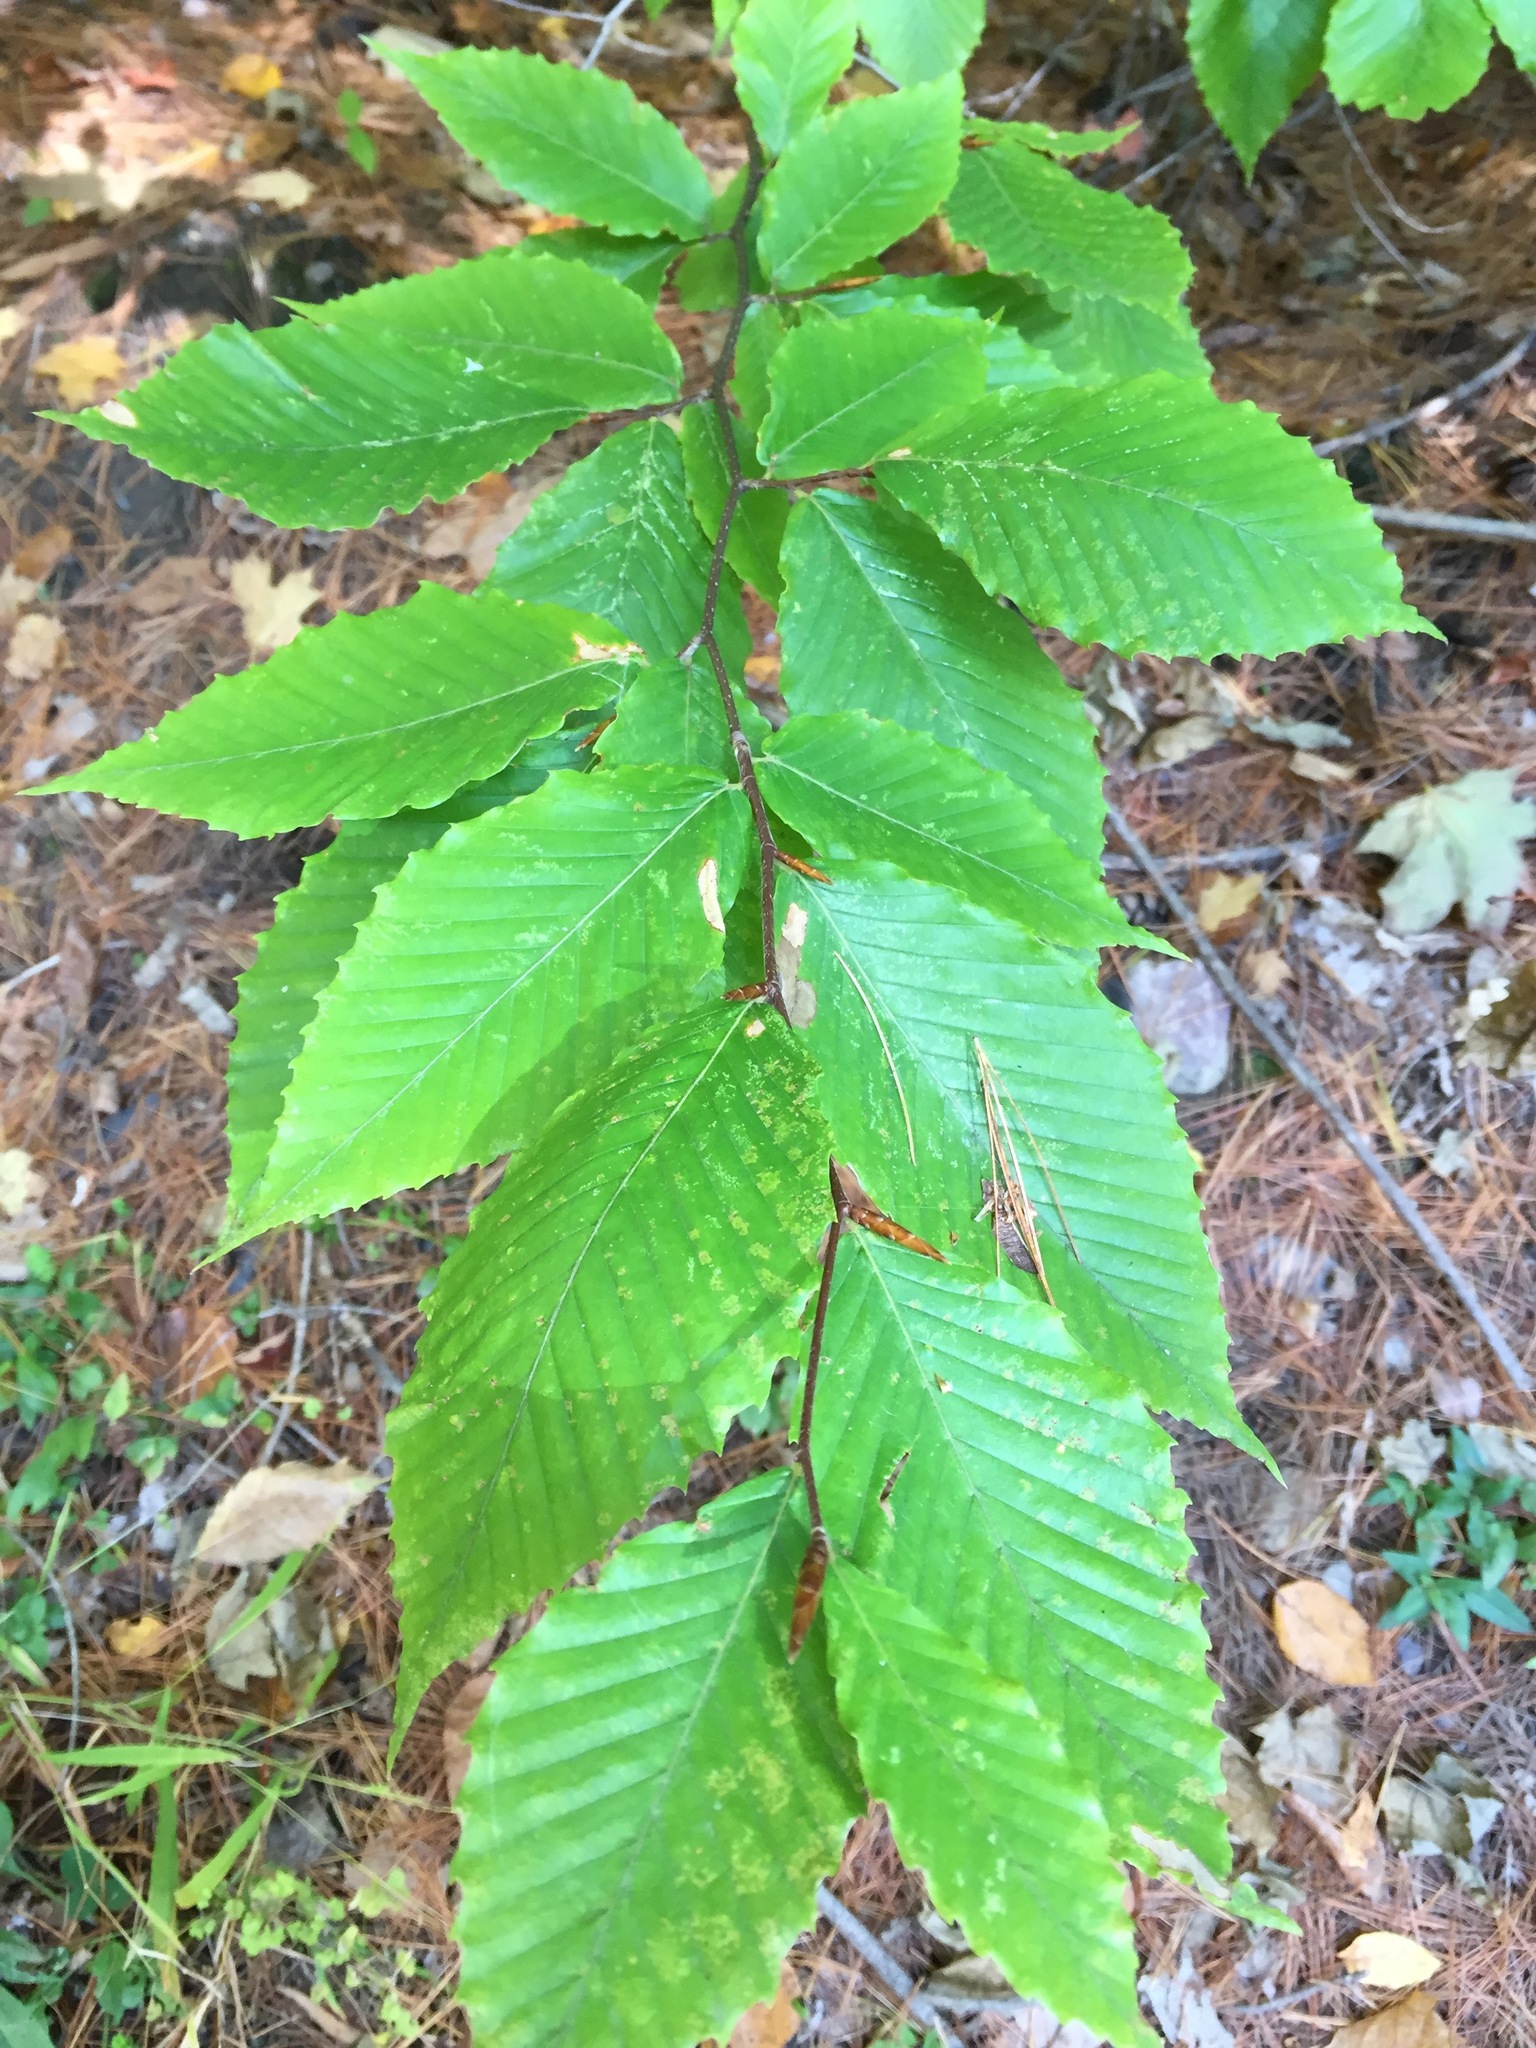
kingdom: Plantae
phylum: Tracheophyta
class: Magnoliopsida
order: Fagales
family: Fagaceae
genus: Fagus
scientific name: Fagus grandifolia
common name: American beech
